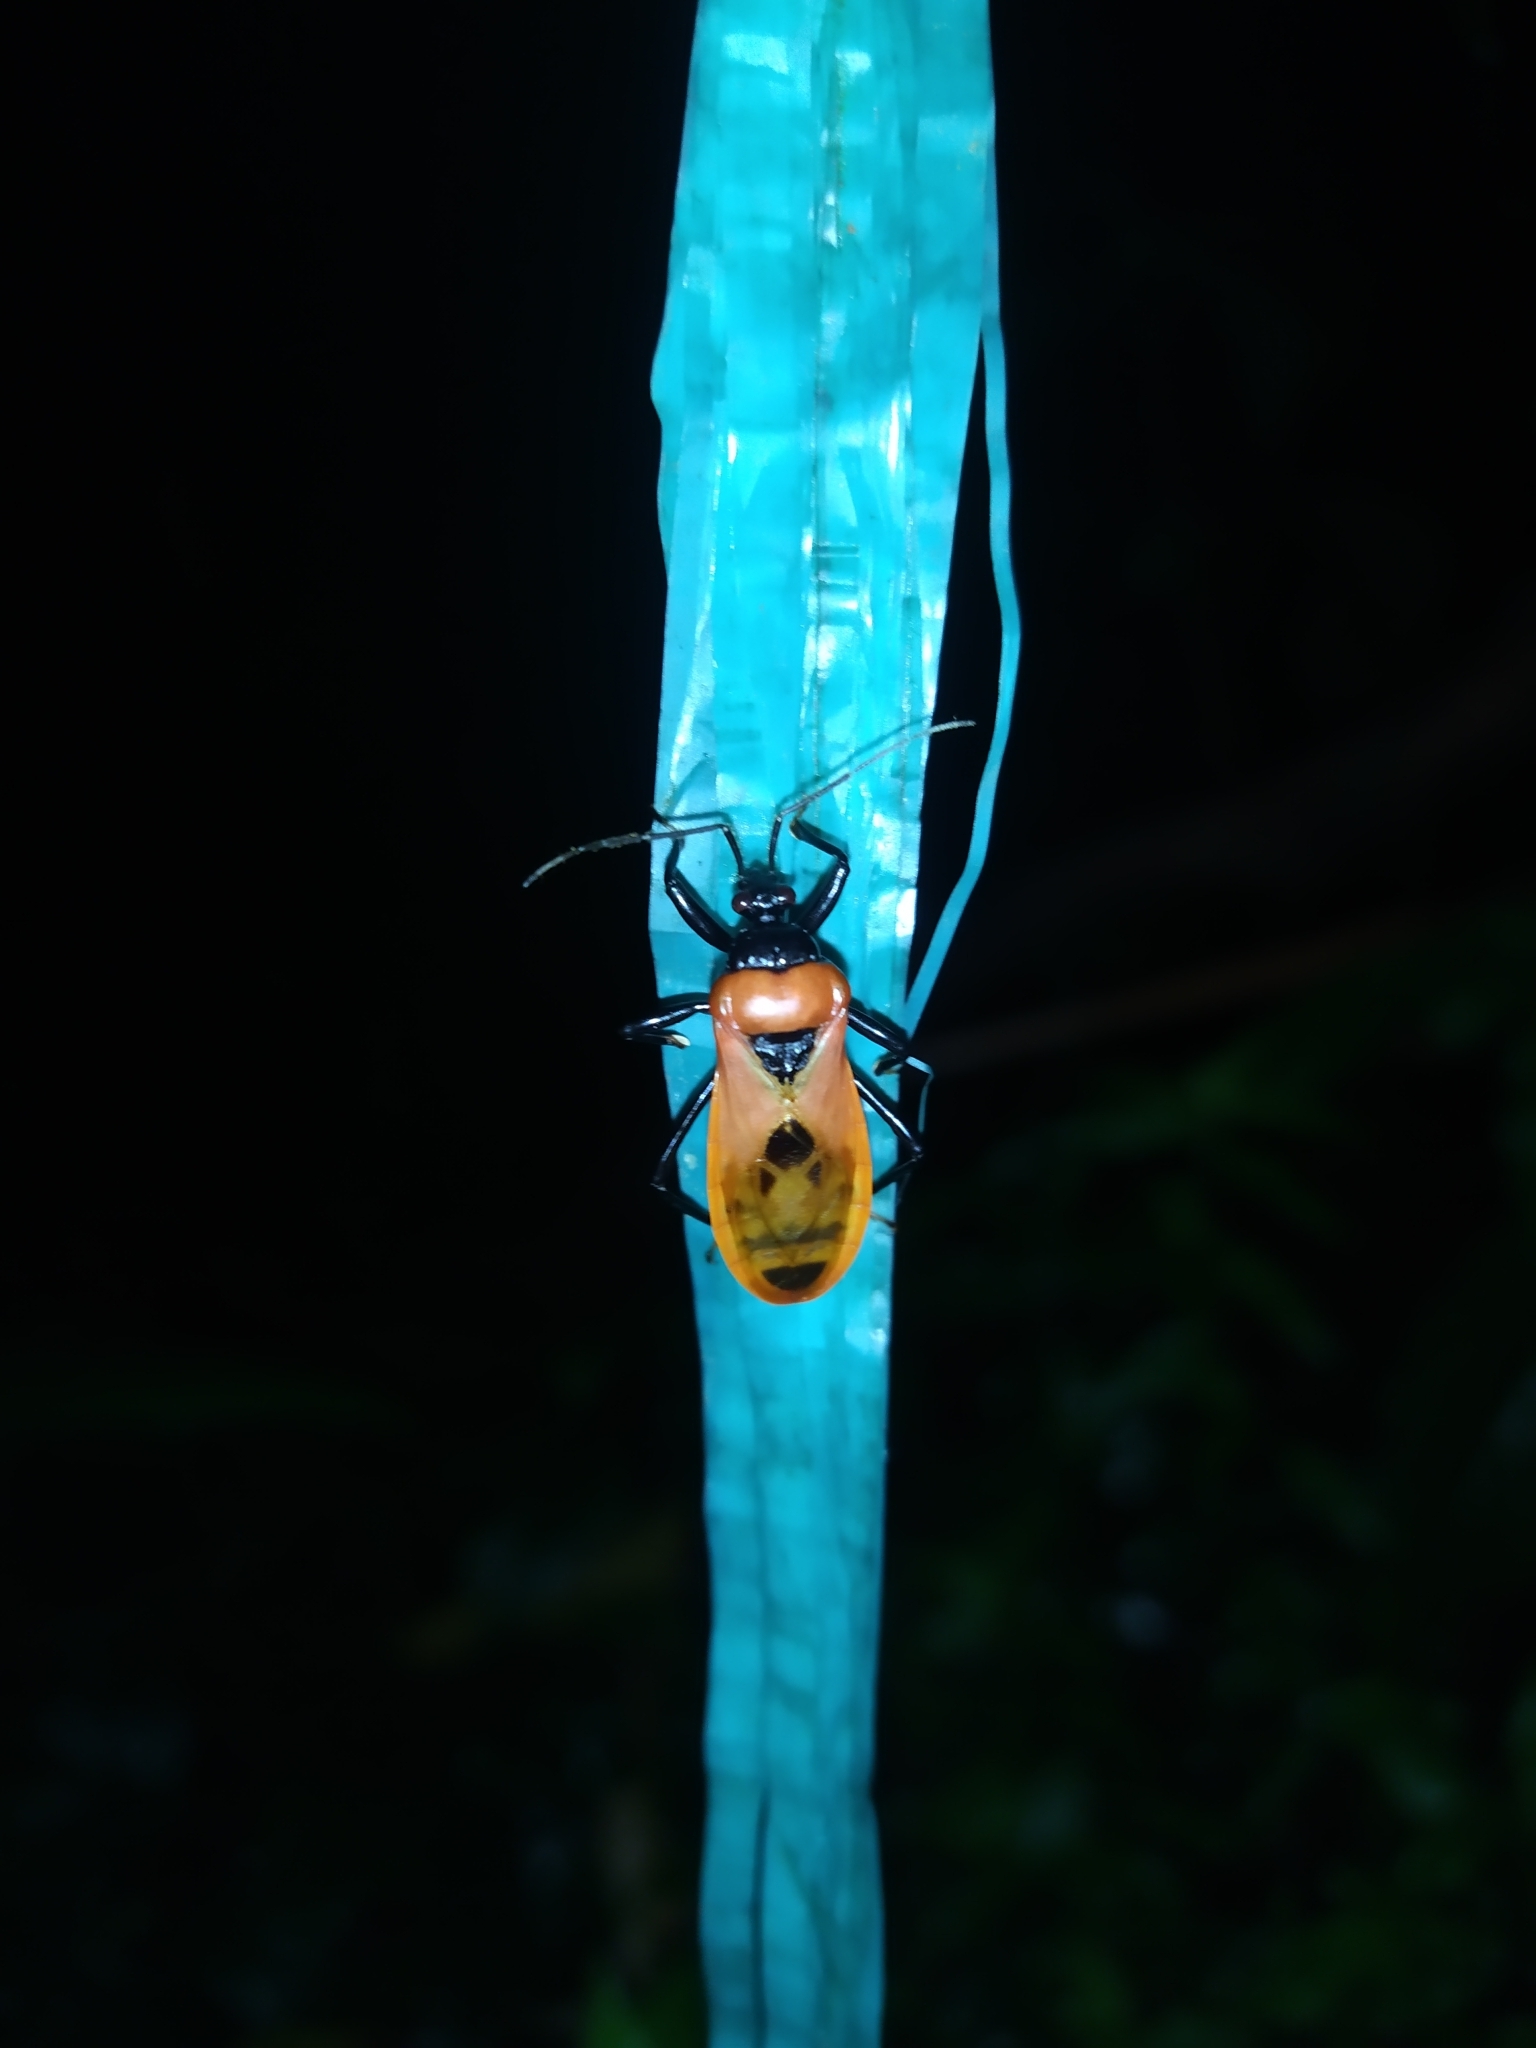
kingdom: Animalia
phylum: Arthropoda
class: Insecta
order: Hemiptera
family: Reduviidae
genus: Brontostoma
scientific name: Brontostoma basale
